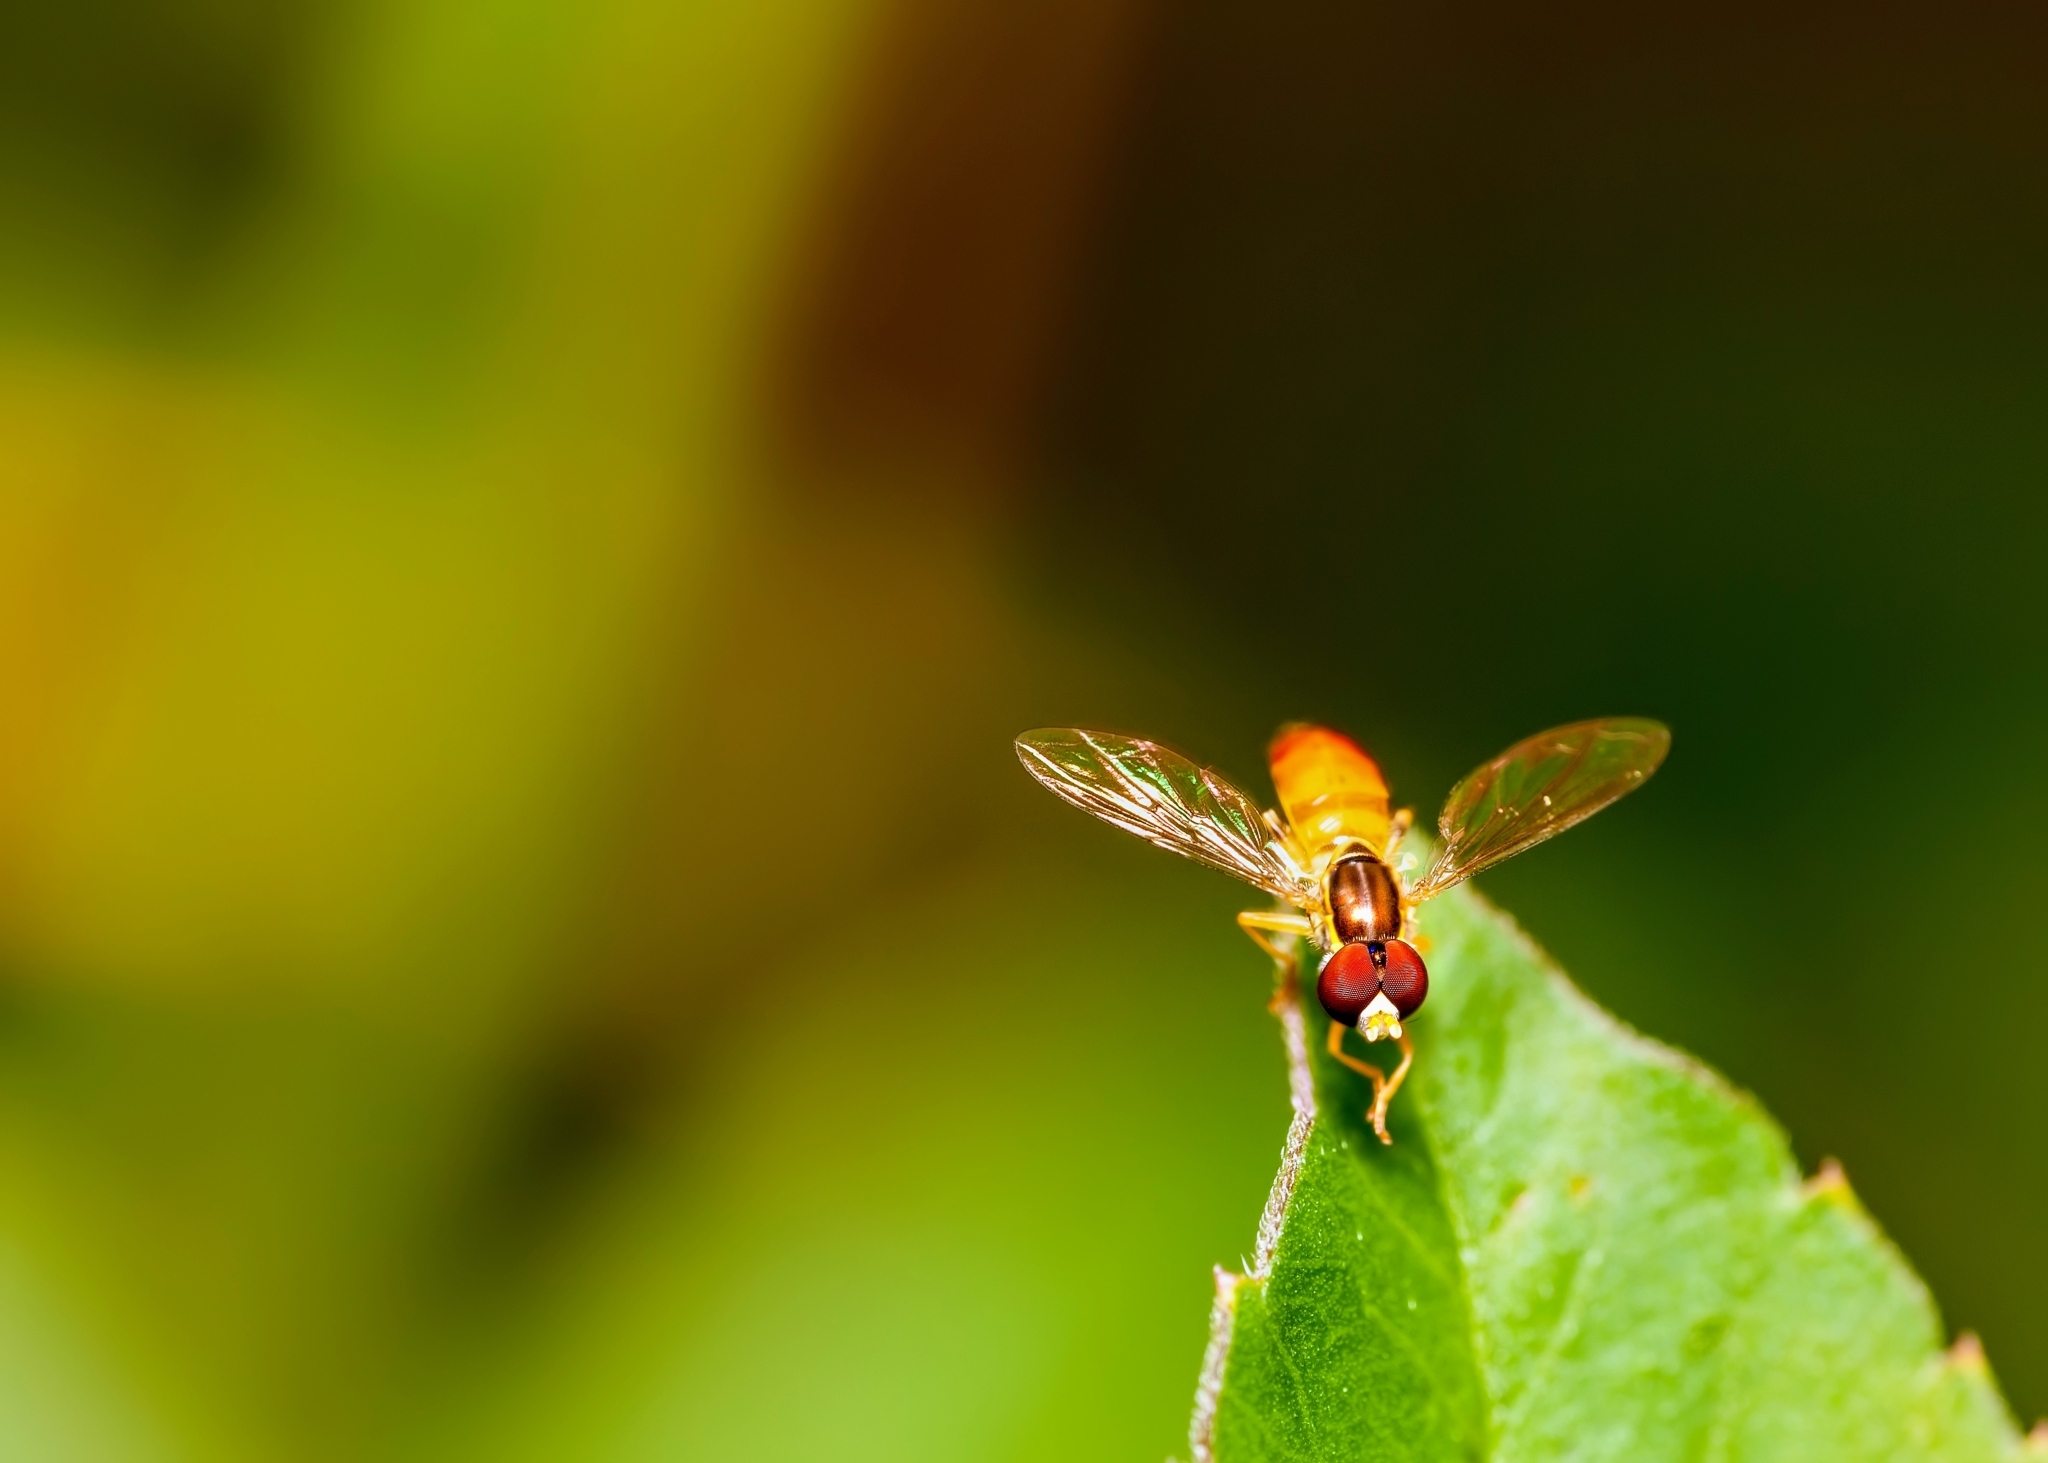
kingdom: Animalia
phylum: Arthropoda
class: Insecta
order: Diptera
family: Syrphidae
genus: Toxomerus
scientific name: Toxomerus floralis
